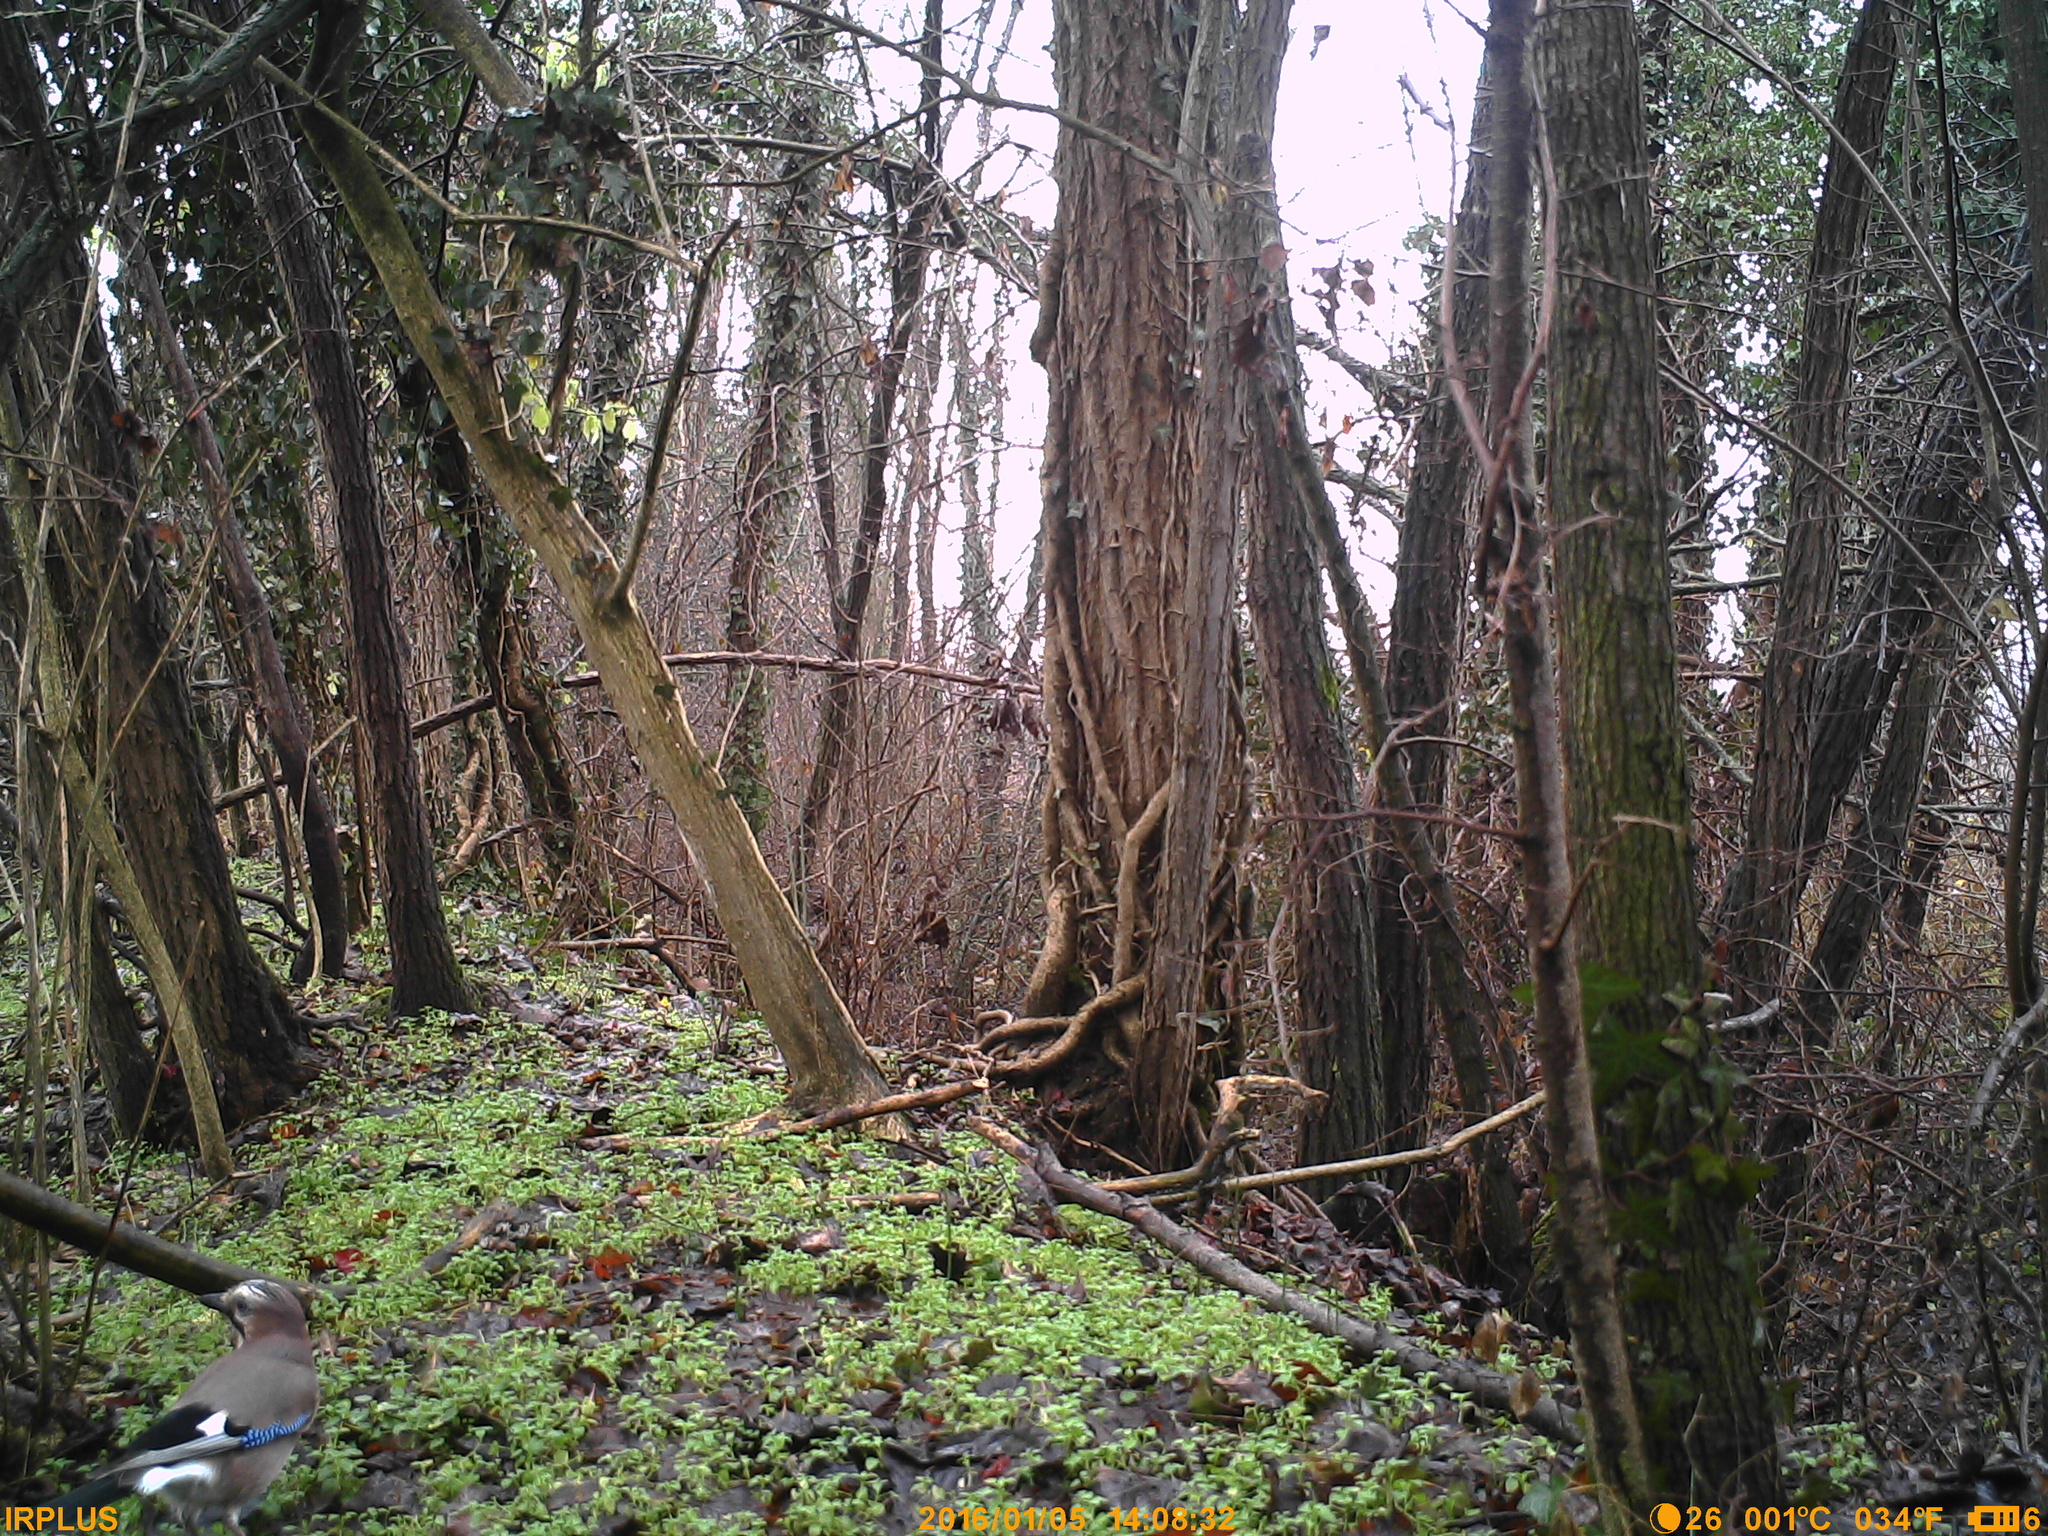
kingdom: Animalia
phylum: Chordata
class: Aves
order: Passeriformes
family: Corvidae
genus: Garrulus
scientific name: Garrulus glandarius
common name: Eurasian jay
